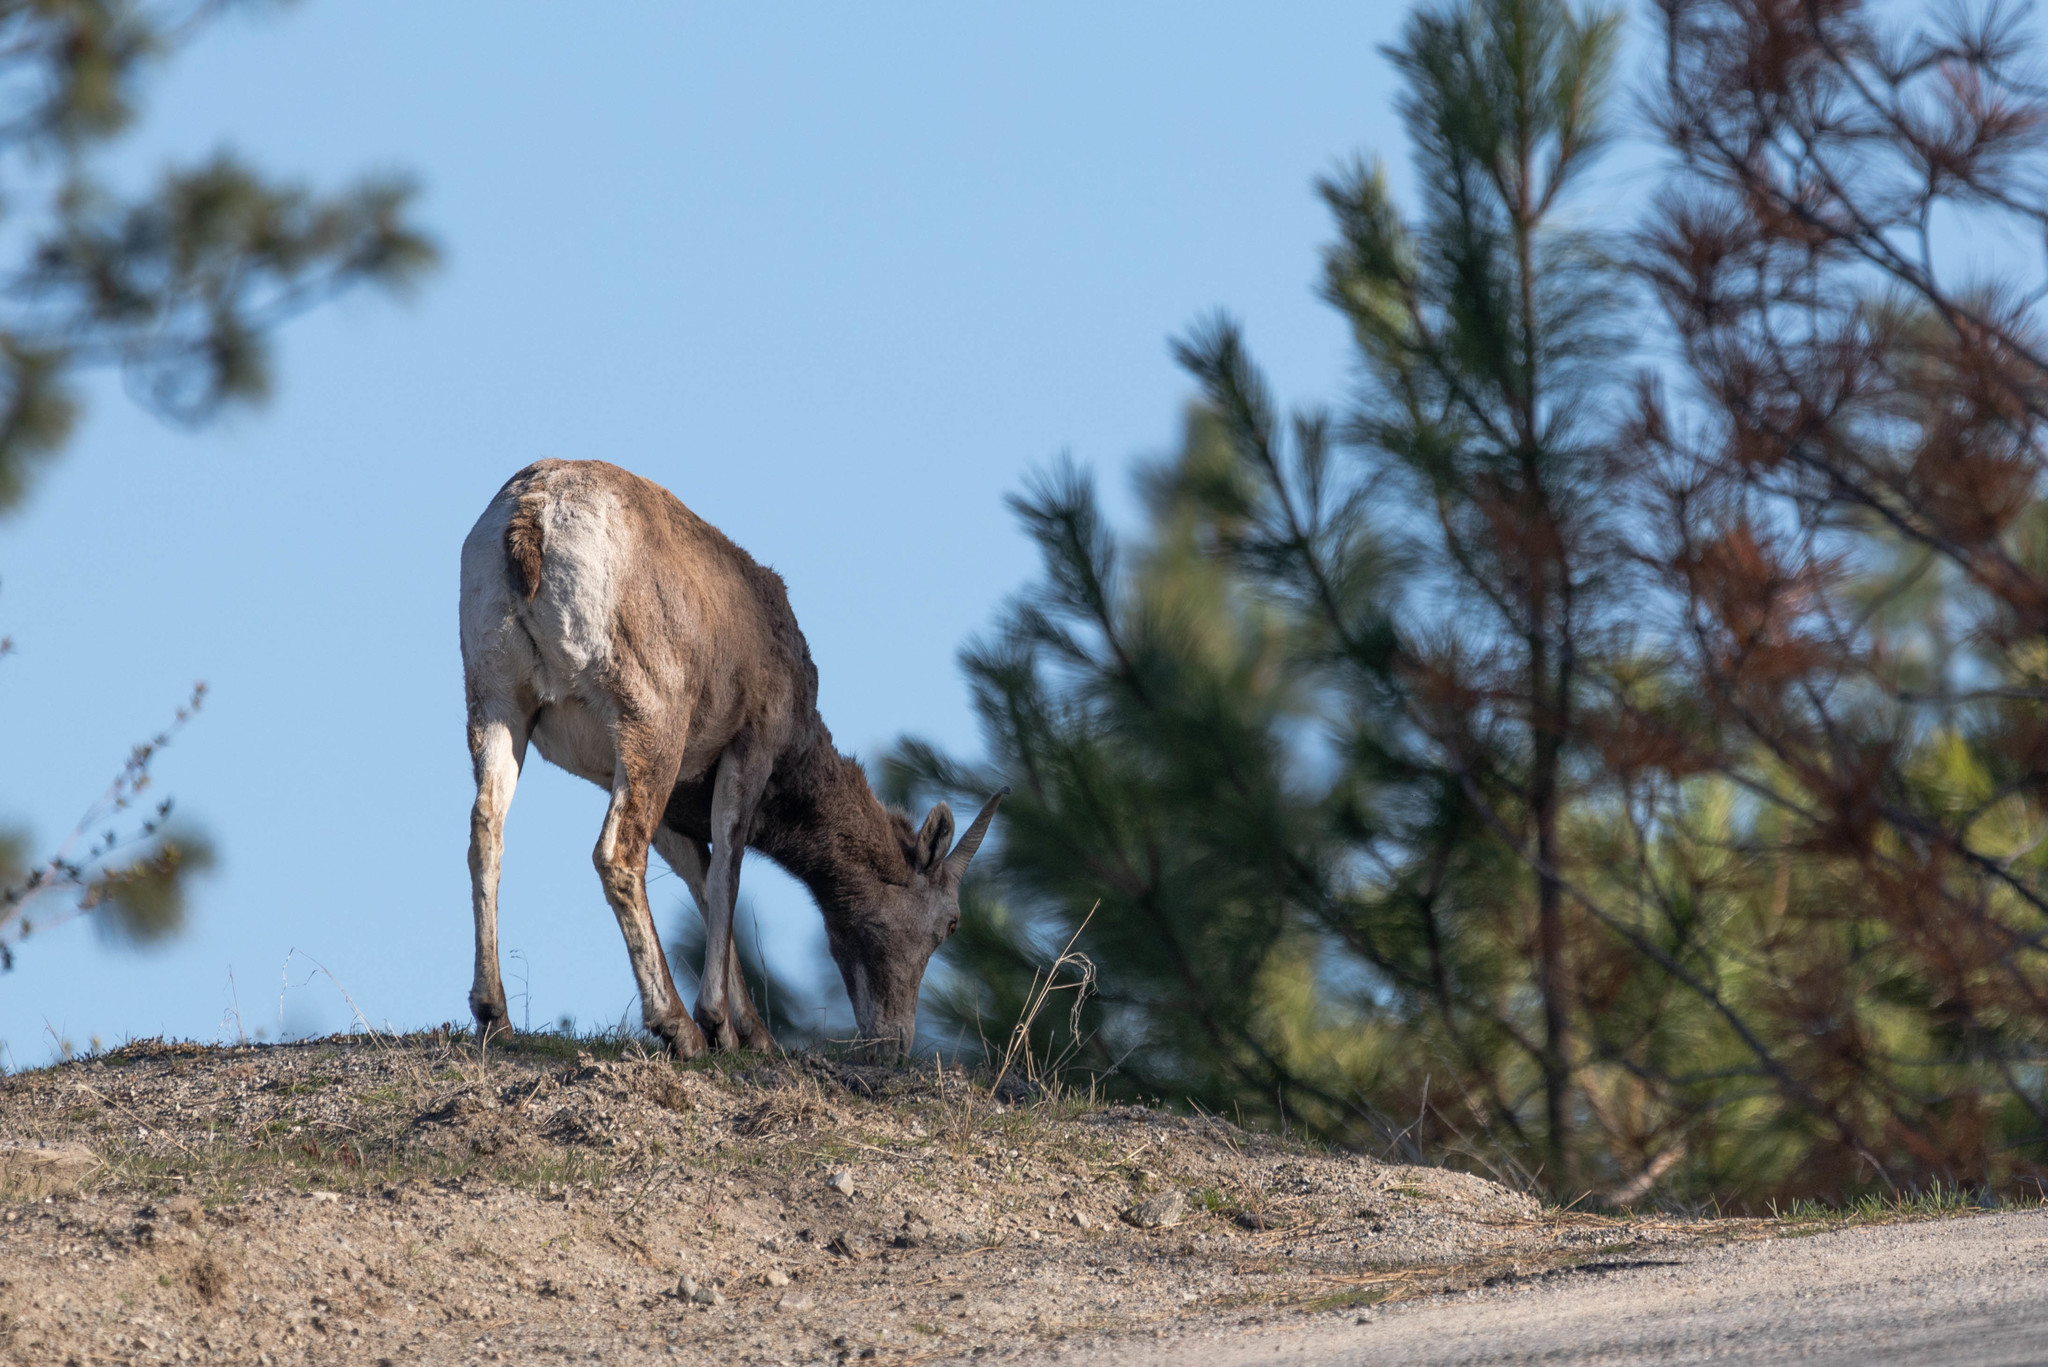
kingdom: Animalia
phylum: Chordata
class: Mammalia
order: Artiodactyla
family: Bovidae
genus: Ovis
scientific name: Ovis canadensis
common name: Bighorn sheep
